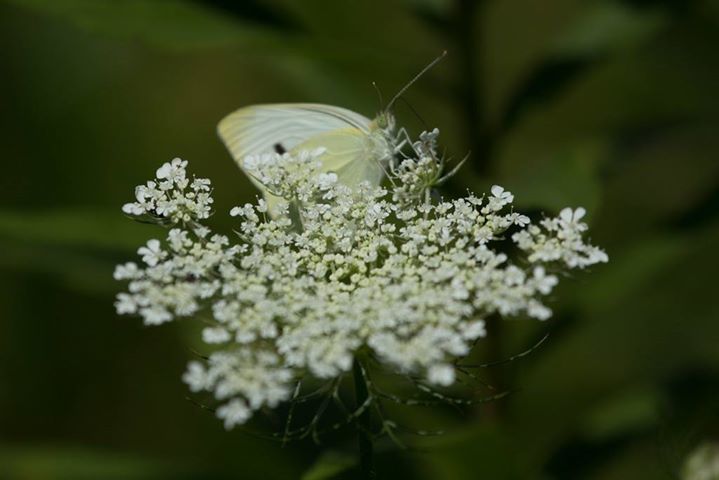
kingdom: Animalia
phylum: Arthropoda
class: Insecta
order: Lepidoptera
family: Pieridae
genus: Pieris
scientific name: Pieris rapae
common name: Small white
